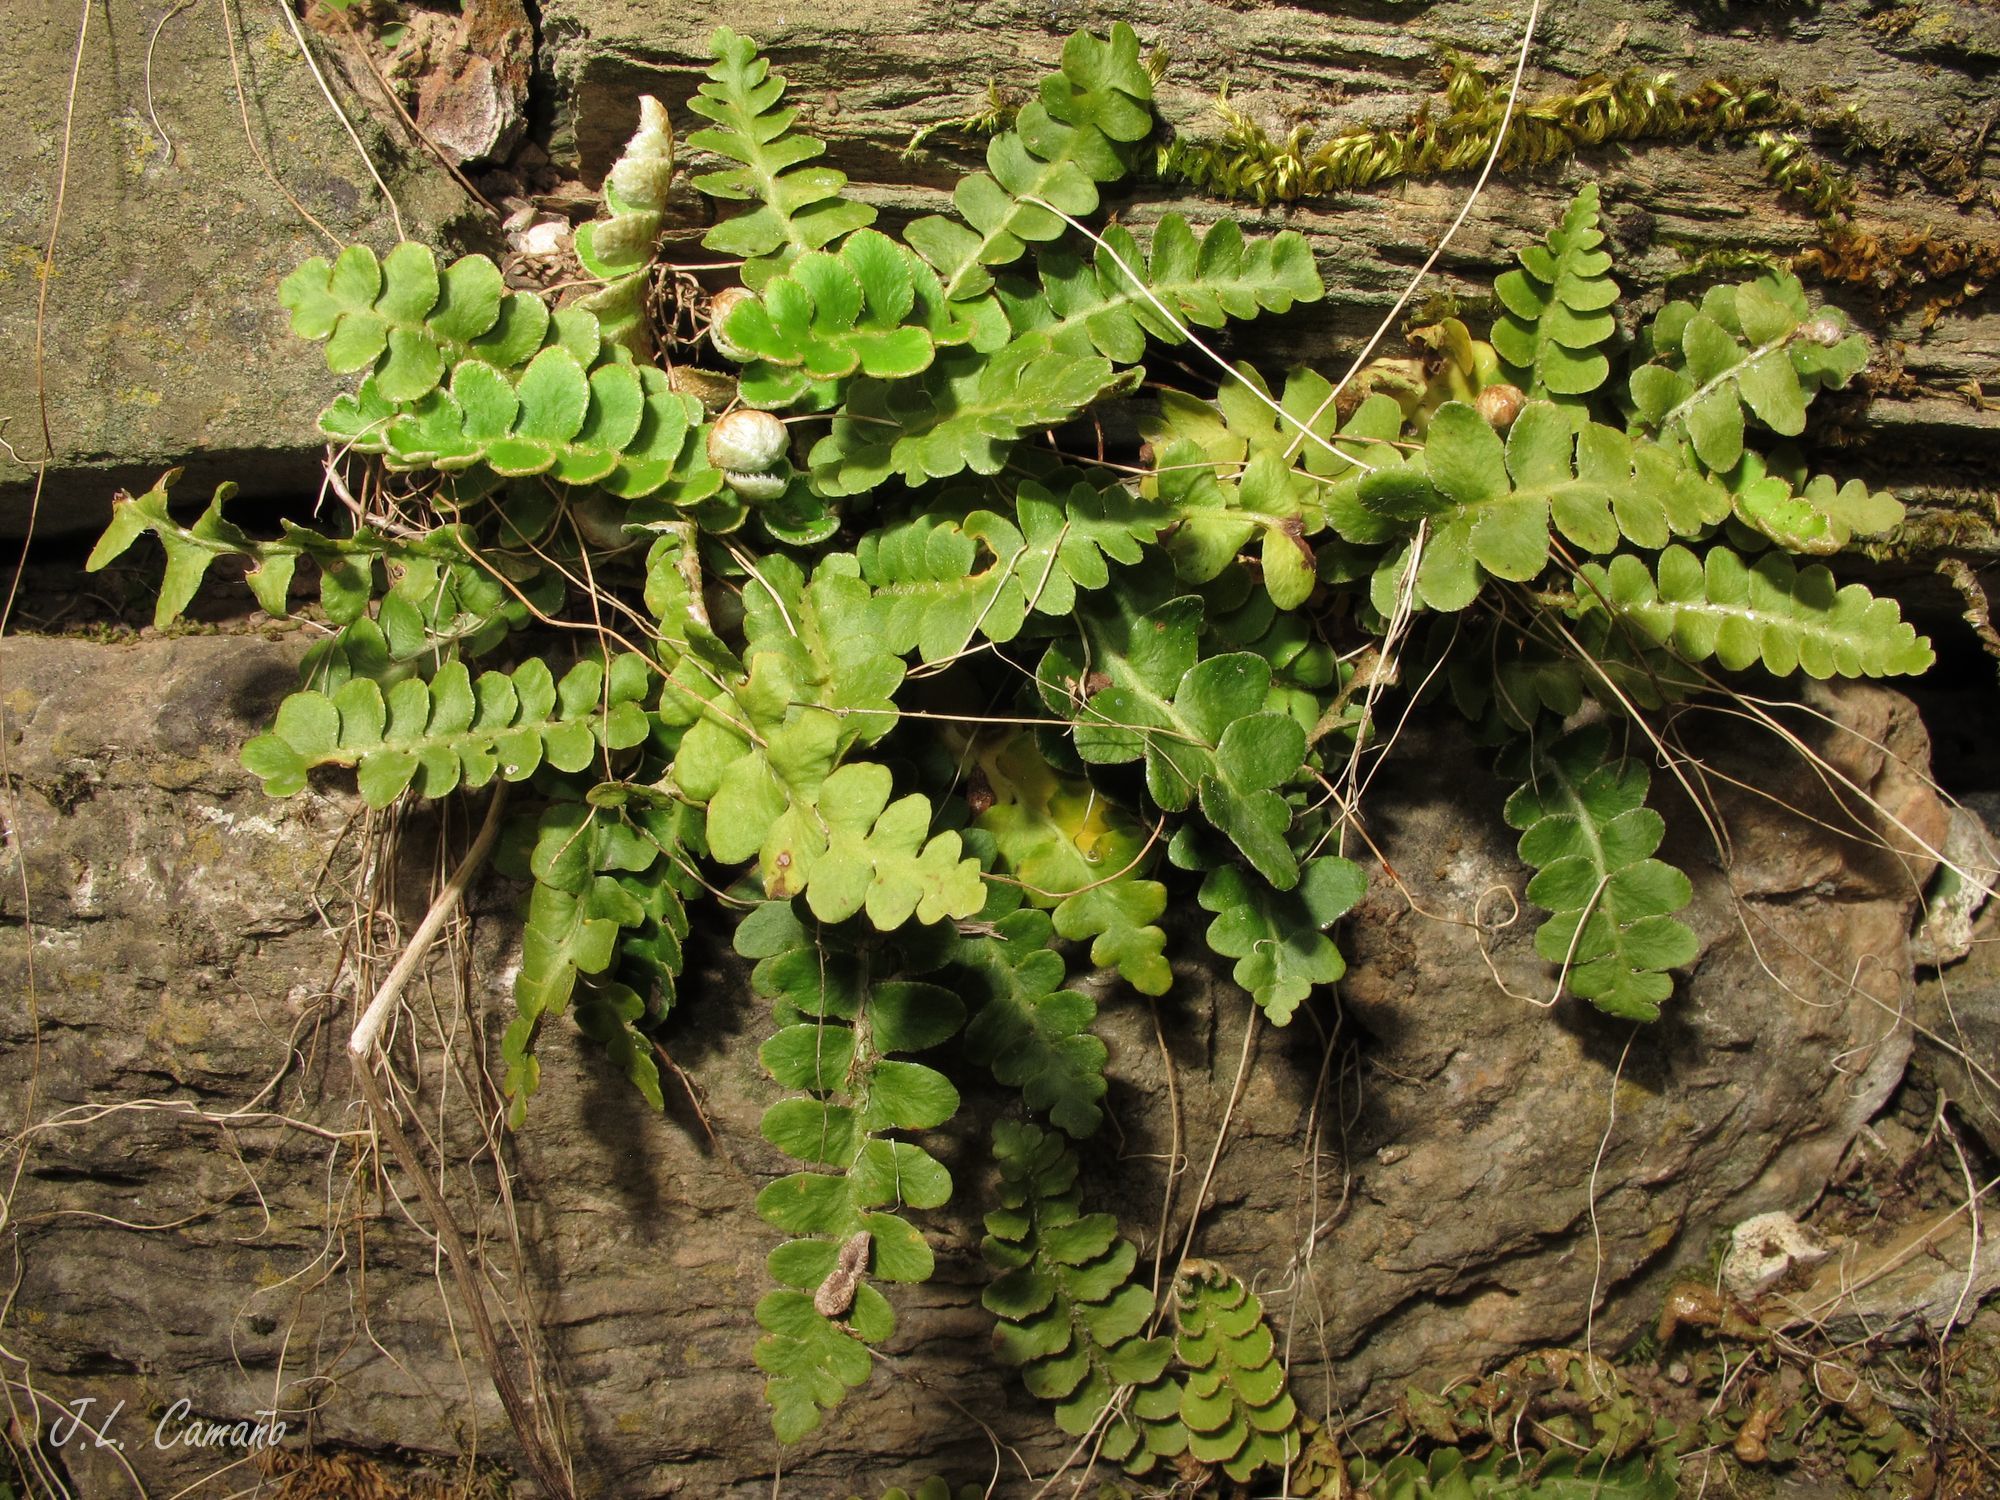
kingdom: Plantae
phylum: Tracheophyta
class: Polypodiopsida
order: Polypodiales
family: Aspleniaceae
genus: Asplenium
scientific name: Asplenium ceterach
